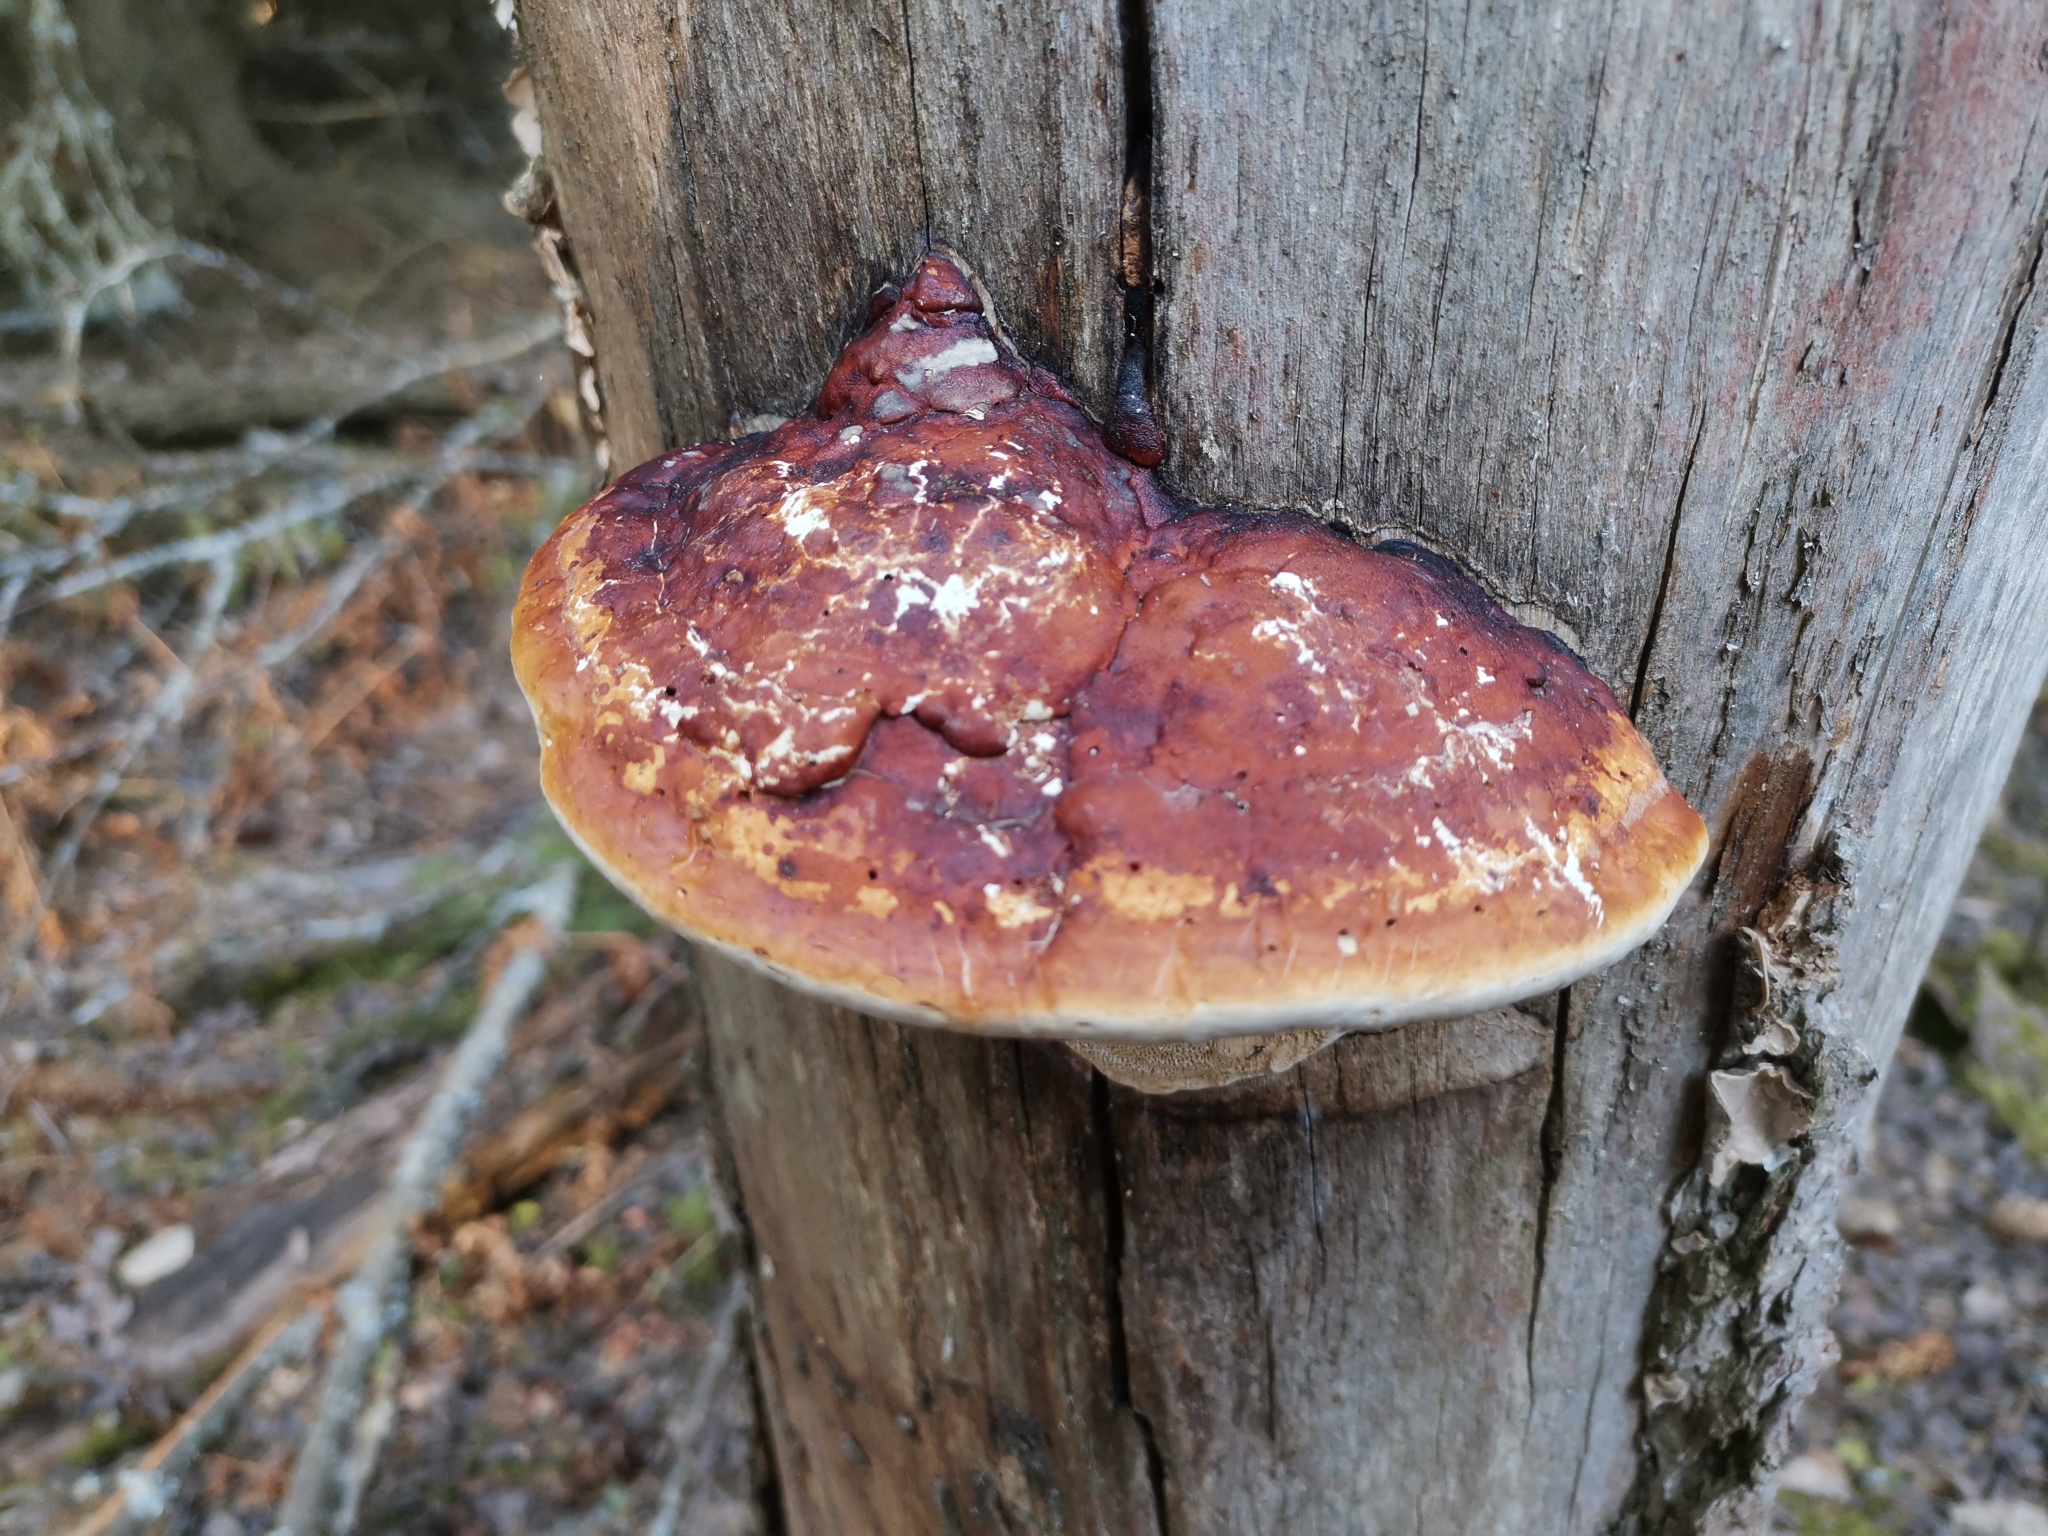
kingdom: Fungi
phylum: Basidiomycota
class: Agaricomycetes
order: Polyporales
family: Fomitopsidaceae
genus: Fomitopsis
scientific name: Fomitopsis pinicola
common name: Red-belted bracket
